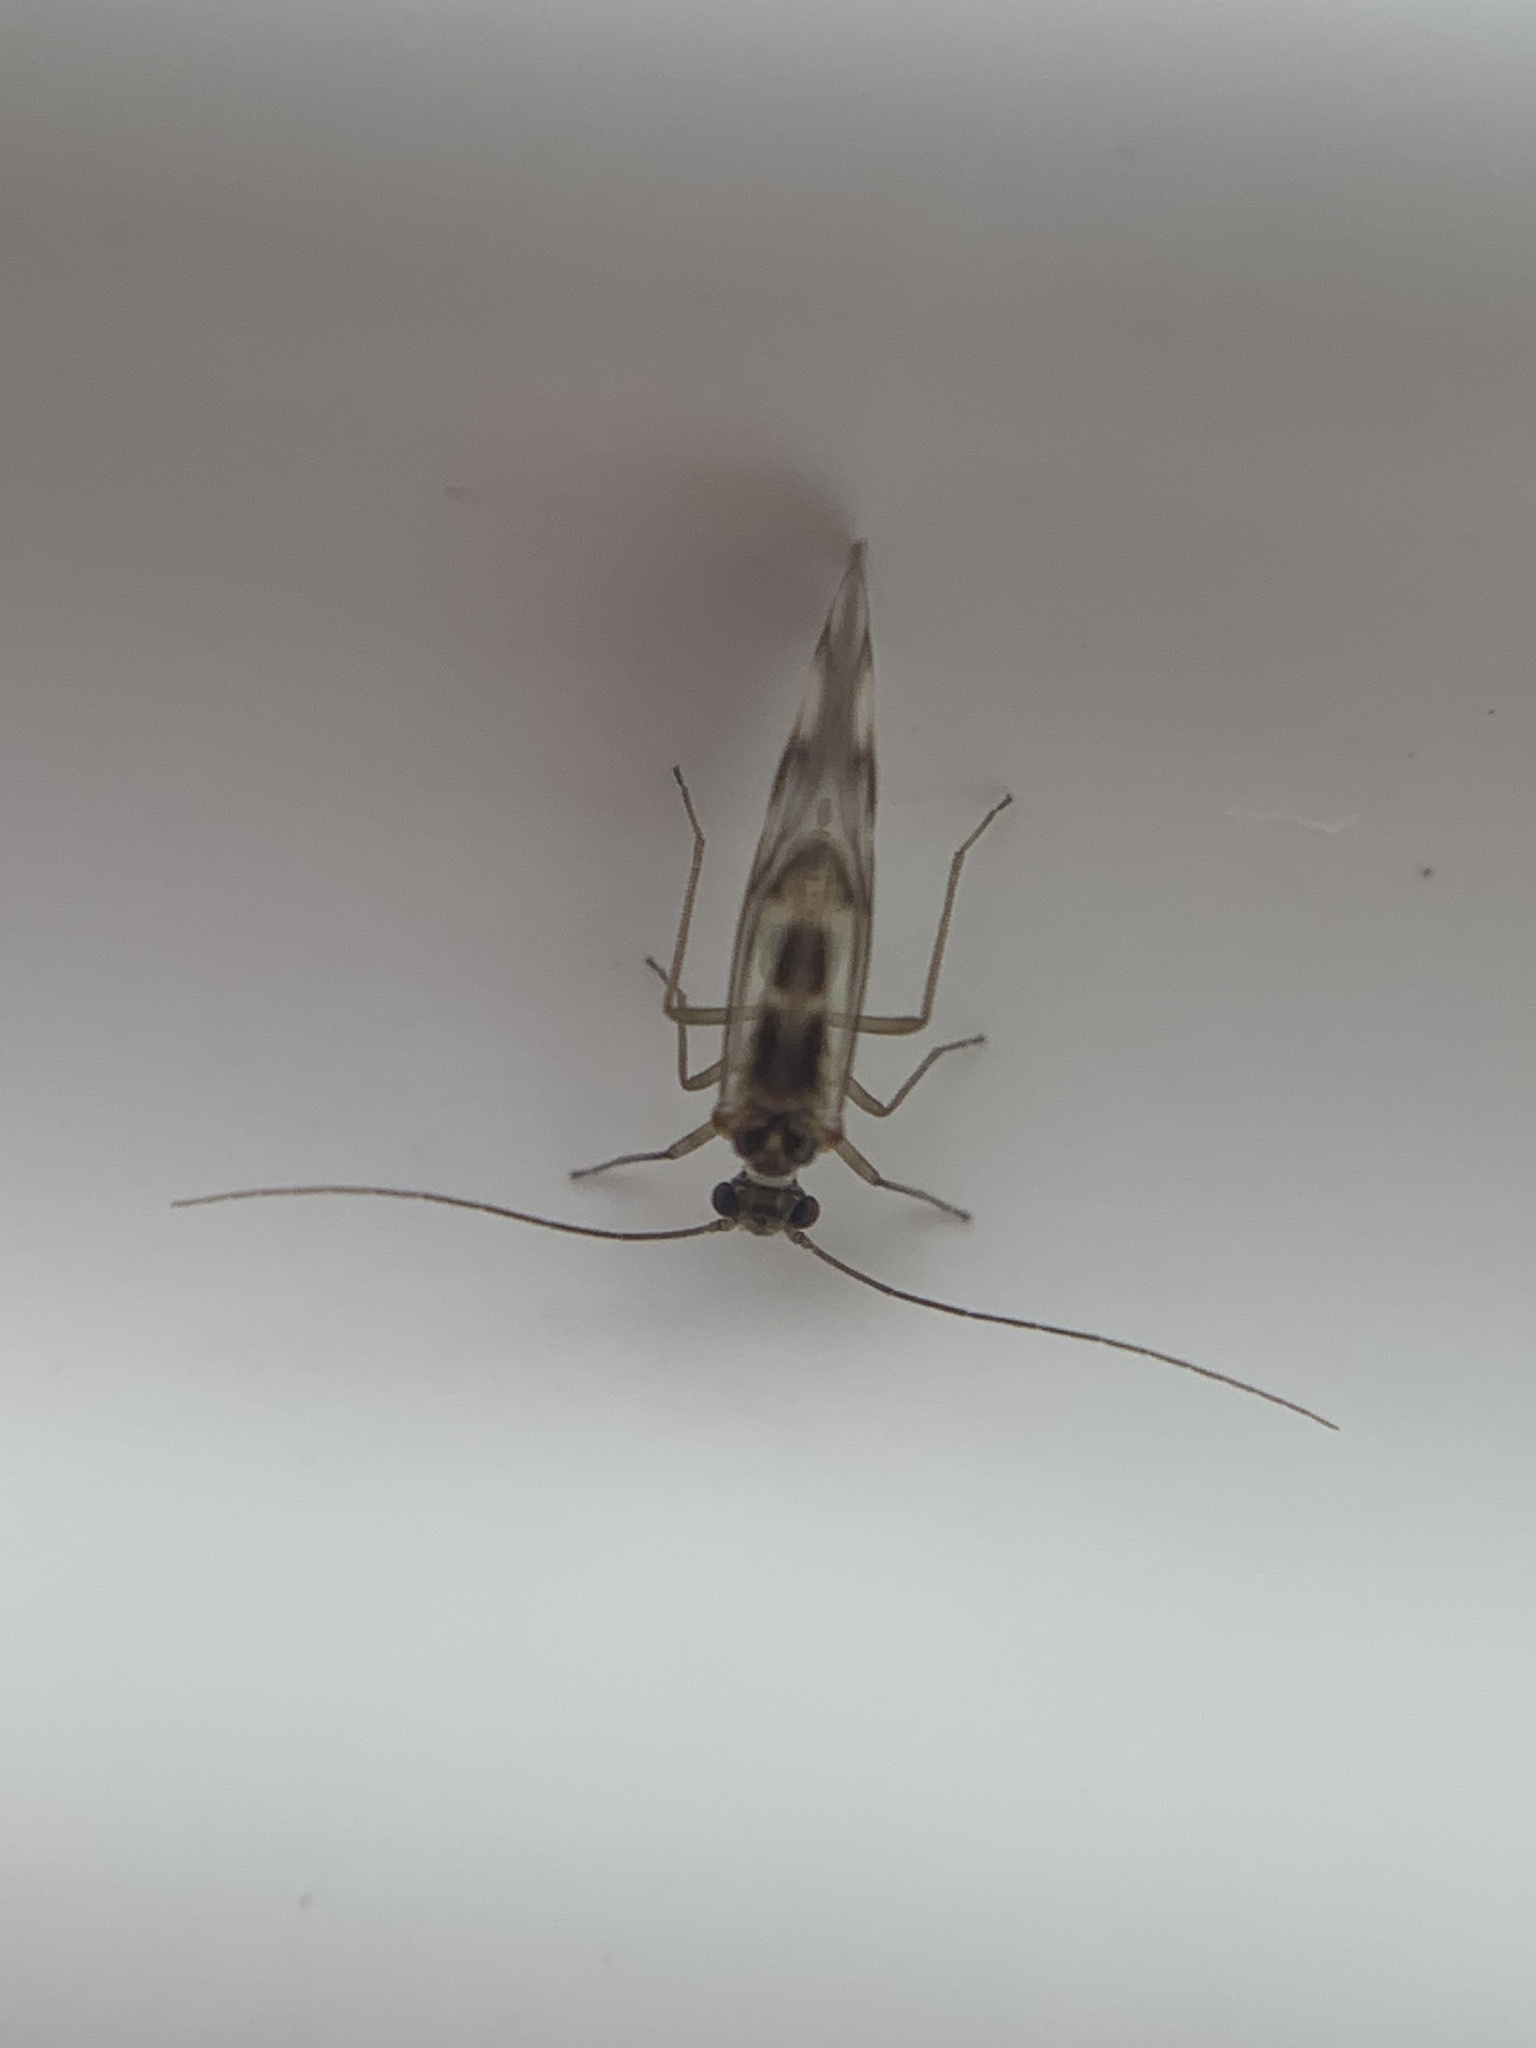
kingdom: Animalia
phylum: Arthropoda
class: Insecta
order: Psocodea
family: Stenopsocidae
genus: Graphopsocus
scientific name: Graphopsocus cruciatus
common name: Lizard bark louse
